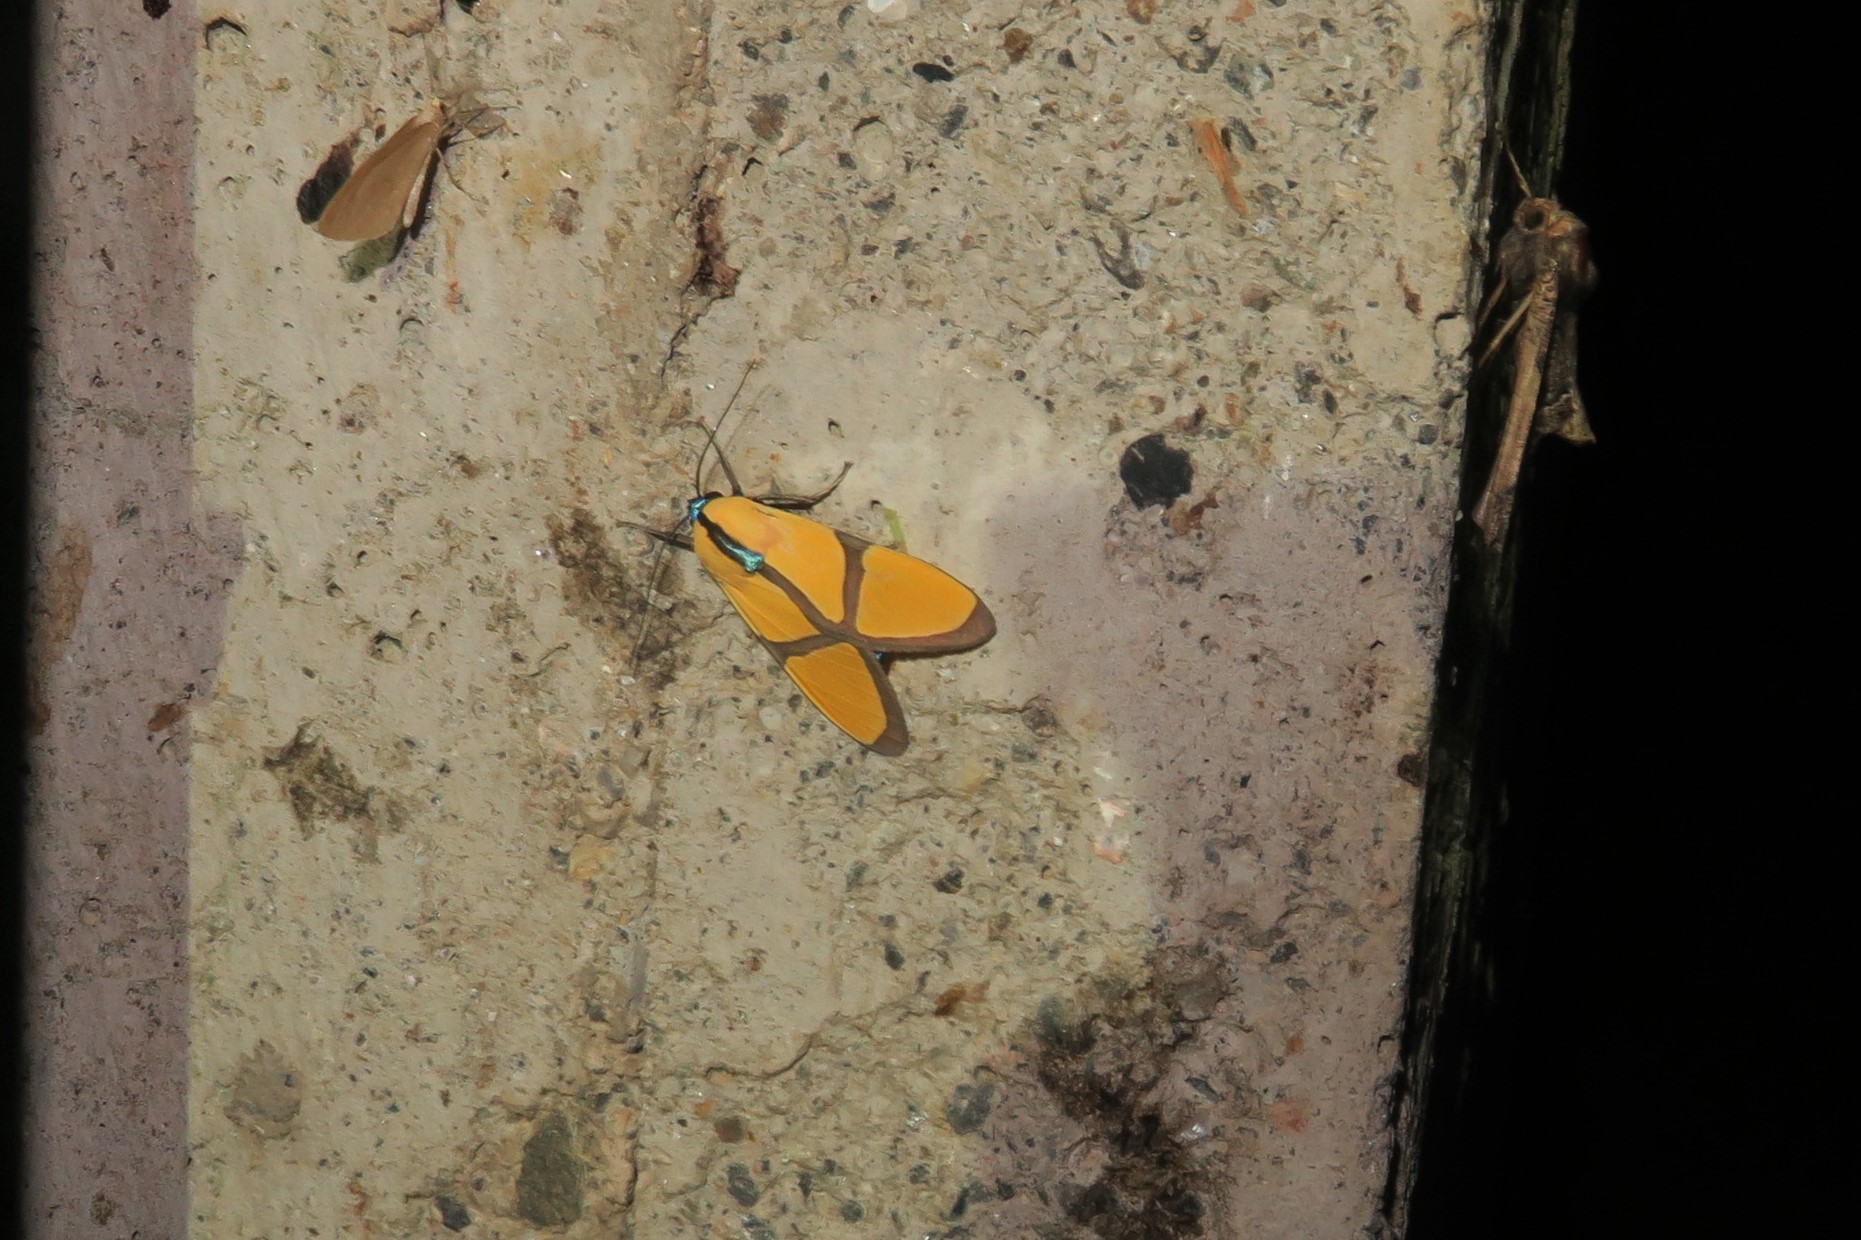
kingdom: Animalia
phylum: Arthropoda
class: Insecta
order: Lepidoptera
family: Erebidae
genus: Ormetica
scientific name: Ormetica ameoides
